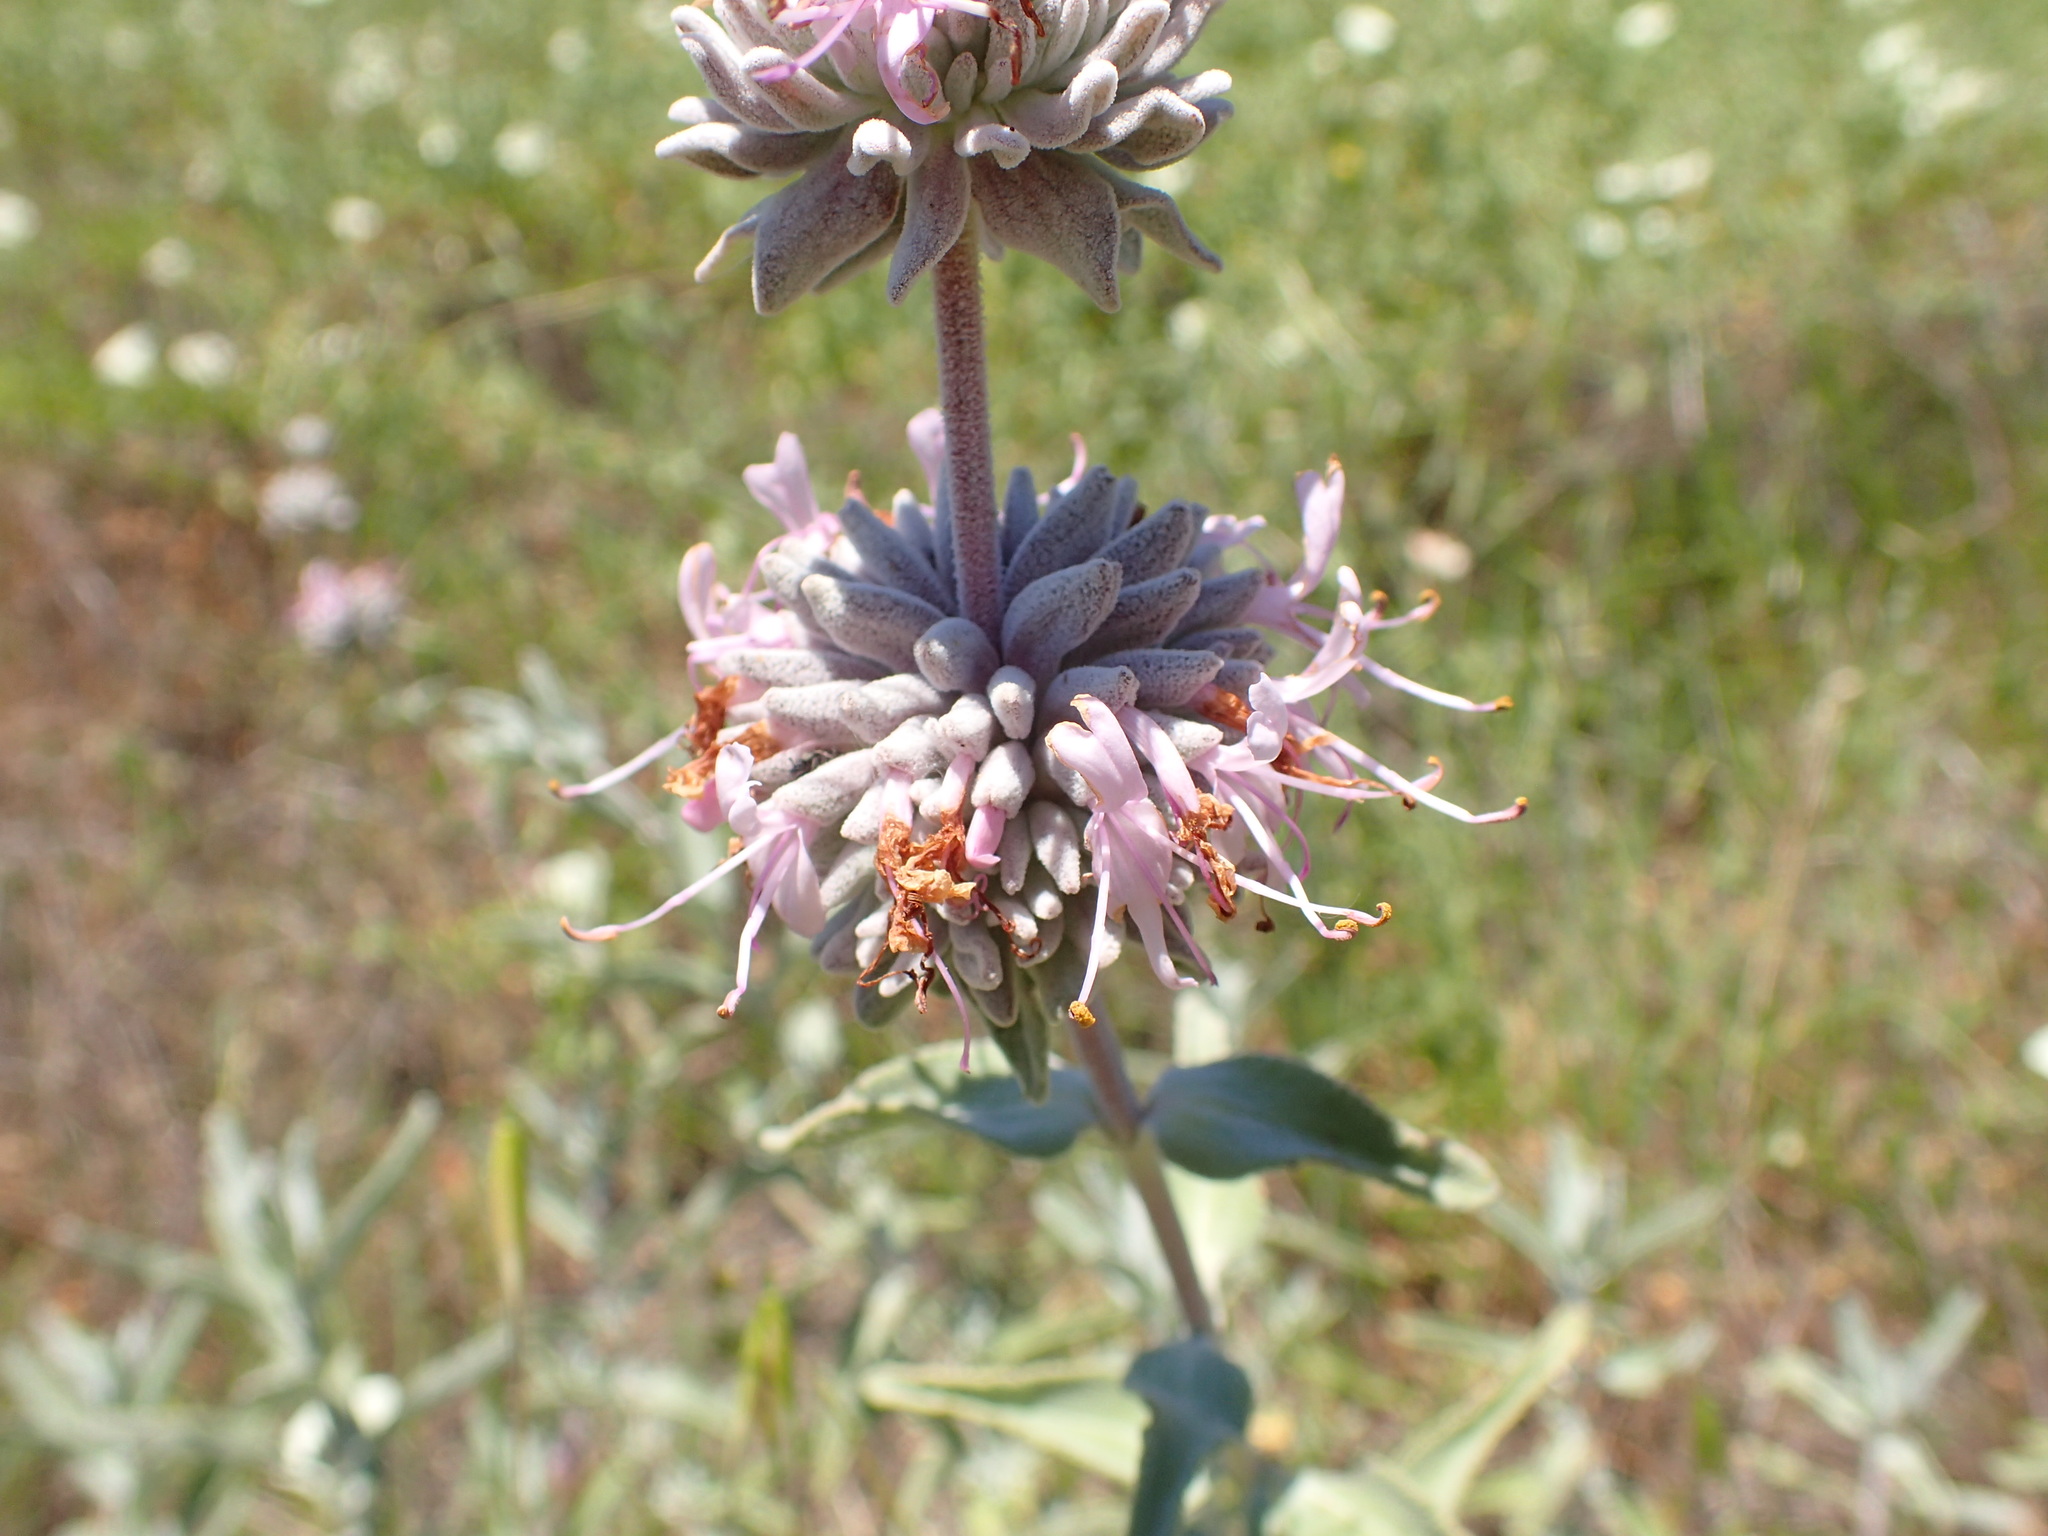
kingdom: Plantae
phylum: Tracheophyta
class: Magnoliopsida
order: Lamiales
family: Lamiaceae
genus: Salvia
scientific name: Salvia leucophylla
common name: Purple sage
